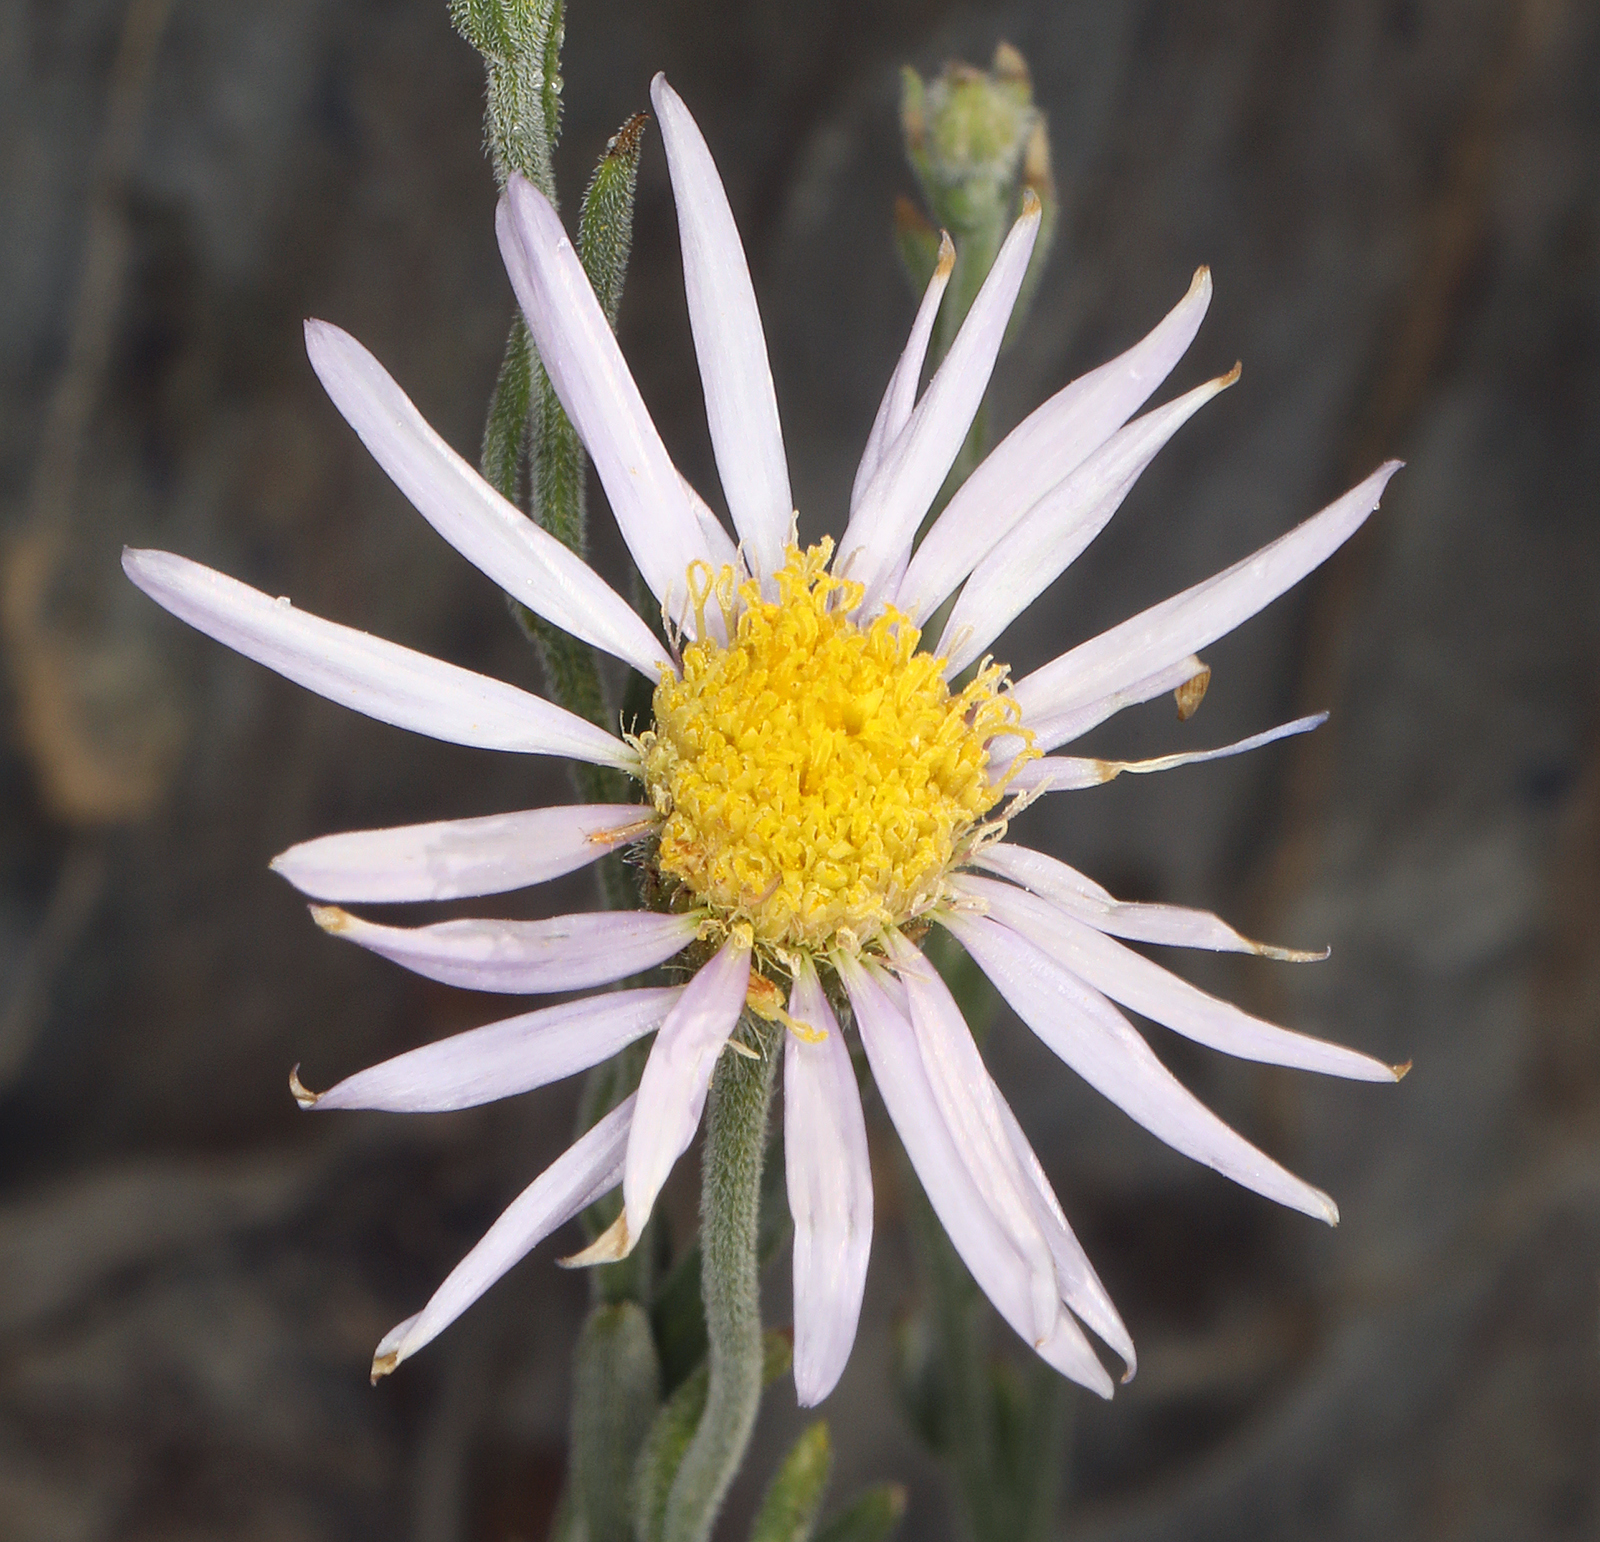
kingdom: Plantae
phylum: Tracheophyta
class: Magnoliopsida
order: Asterales
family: Asteraceae
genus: Erigeron
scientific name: Erigeron breweri
